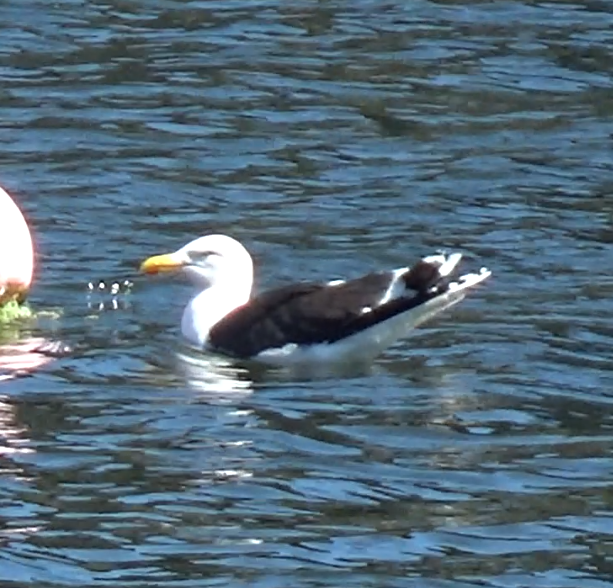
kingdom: Animalia
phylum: Chordata
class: Aves
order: Charadriiformes
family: Laridae
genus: Larus
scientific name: Larus marinus
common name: Great black-backed gull
